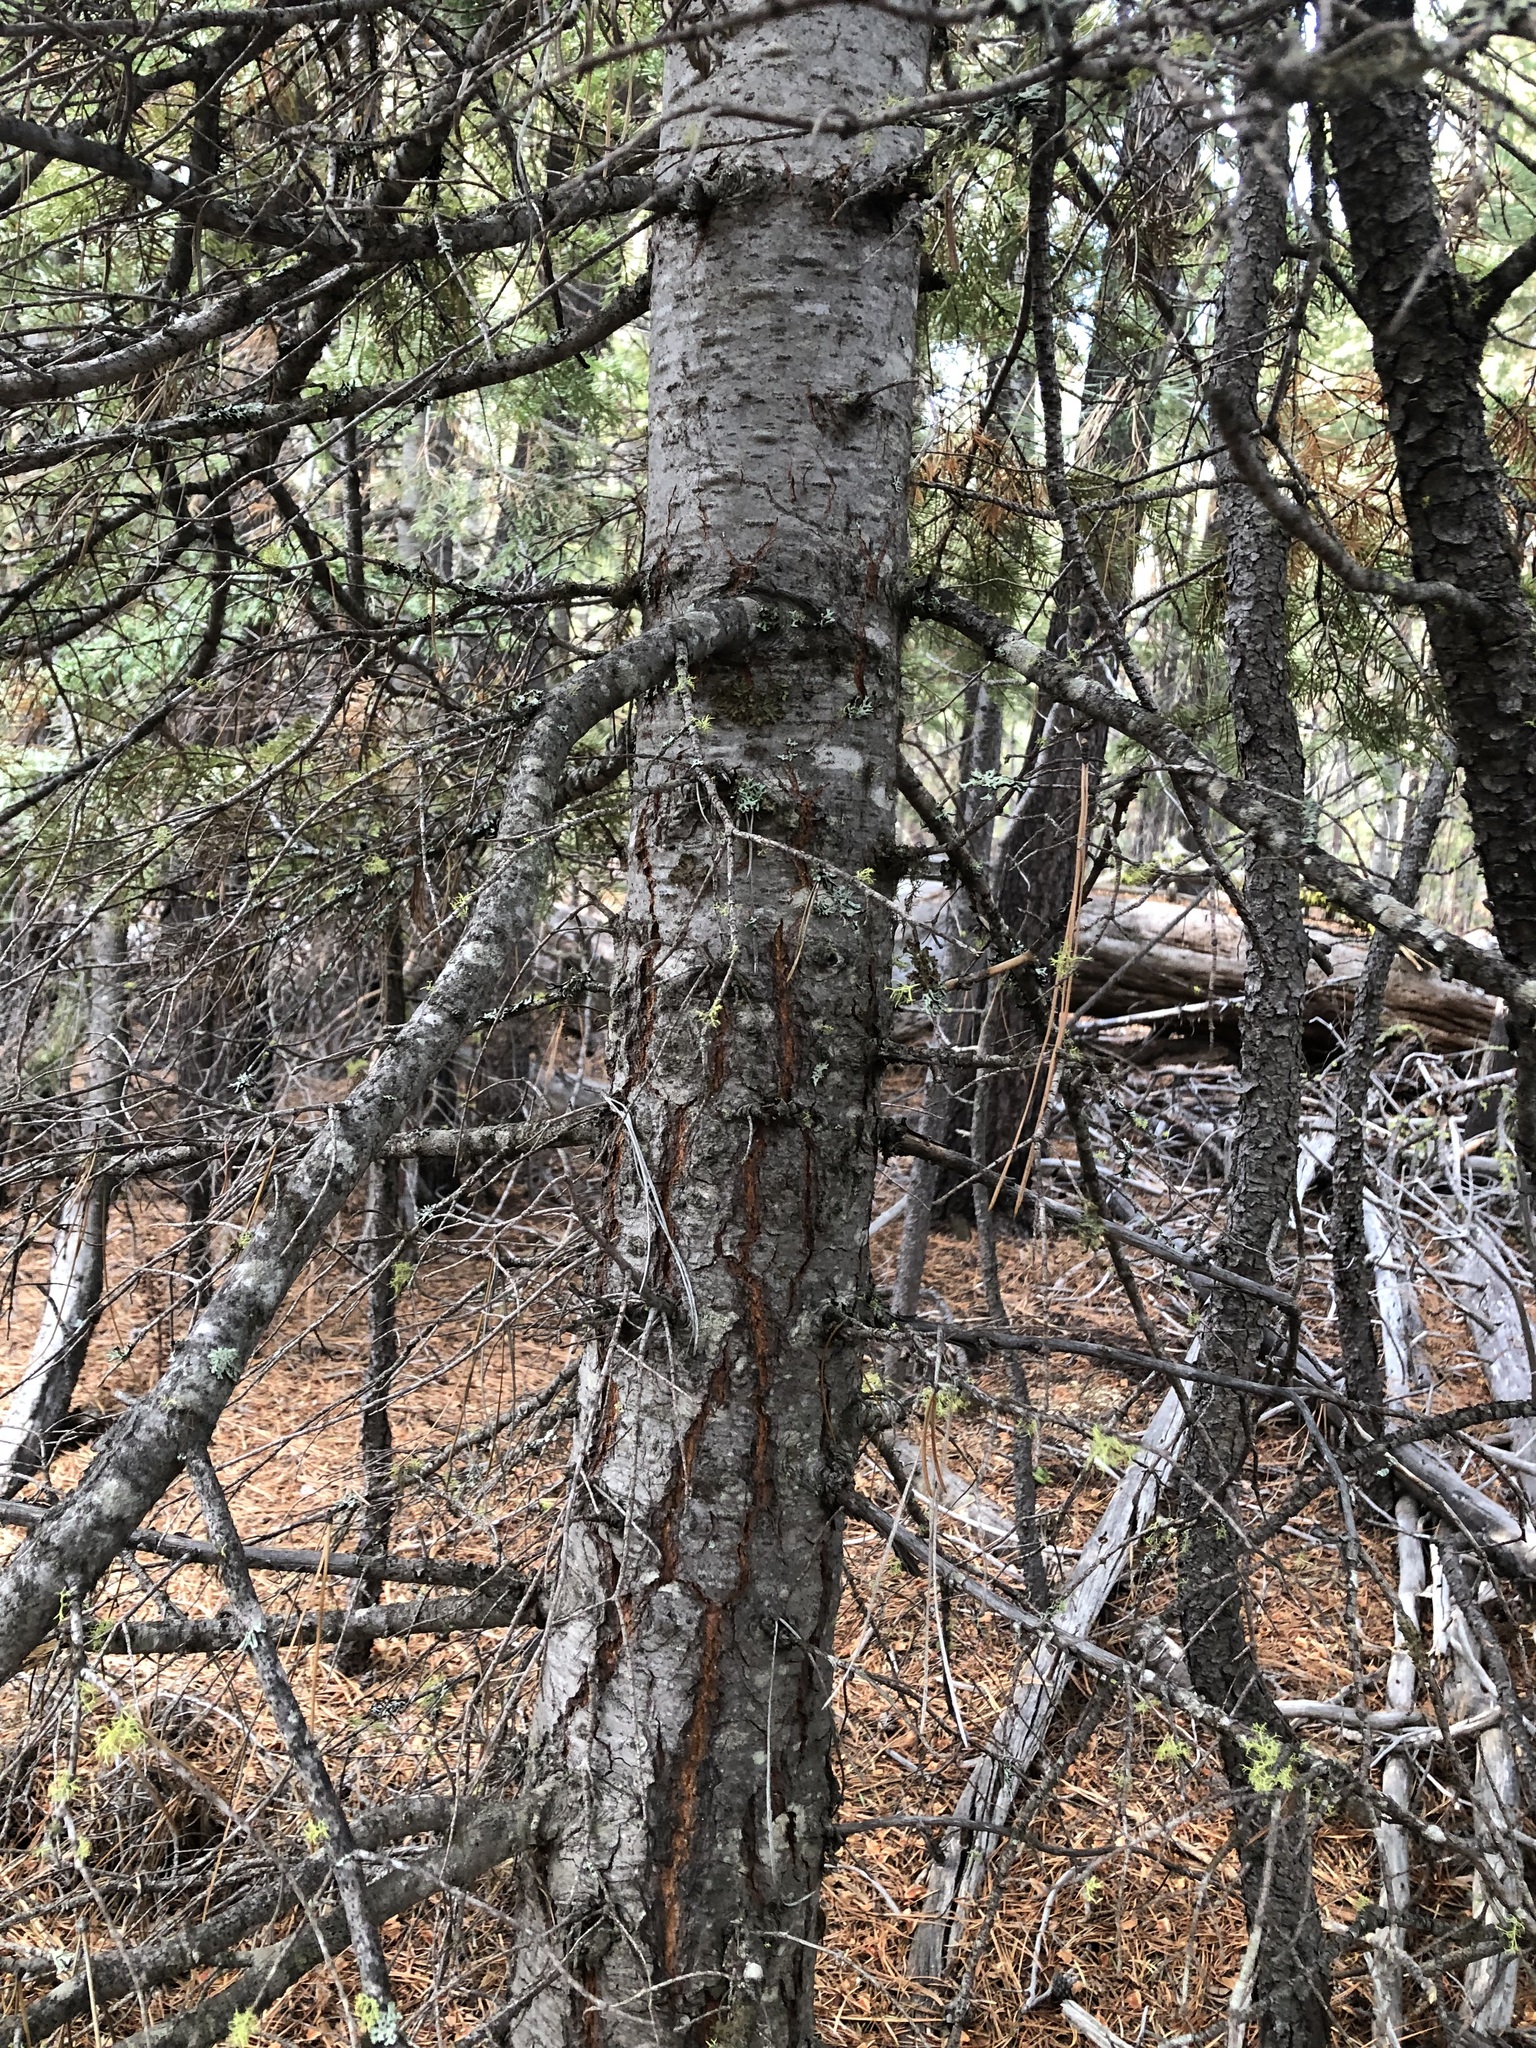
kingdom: Plantae
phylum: Tracheophyta
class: Pinopsida
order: Pinales
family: Pinaceae
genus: Abies
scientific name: Abies concolor
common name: Colorado fir
